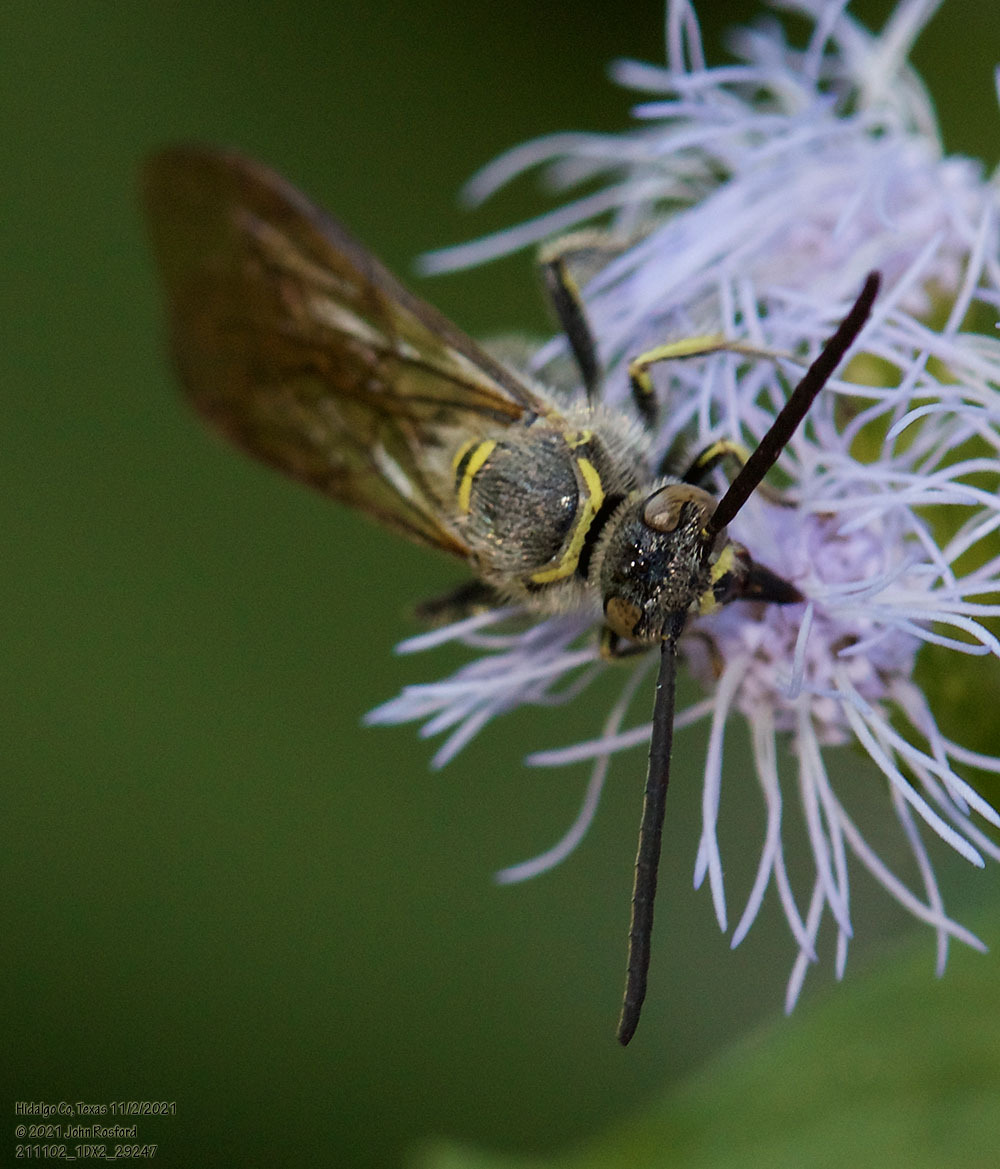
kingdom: Animalia
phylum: Arthropoda
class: Insecta
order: Hymenoptera
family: Scoliidae
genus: Dielis
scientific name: Dielis tolteca
